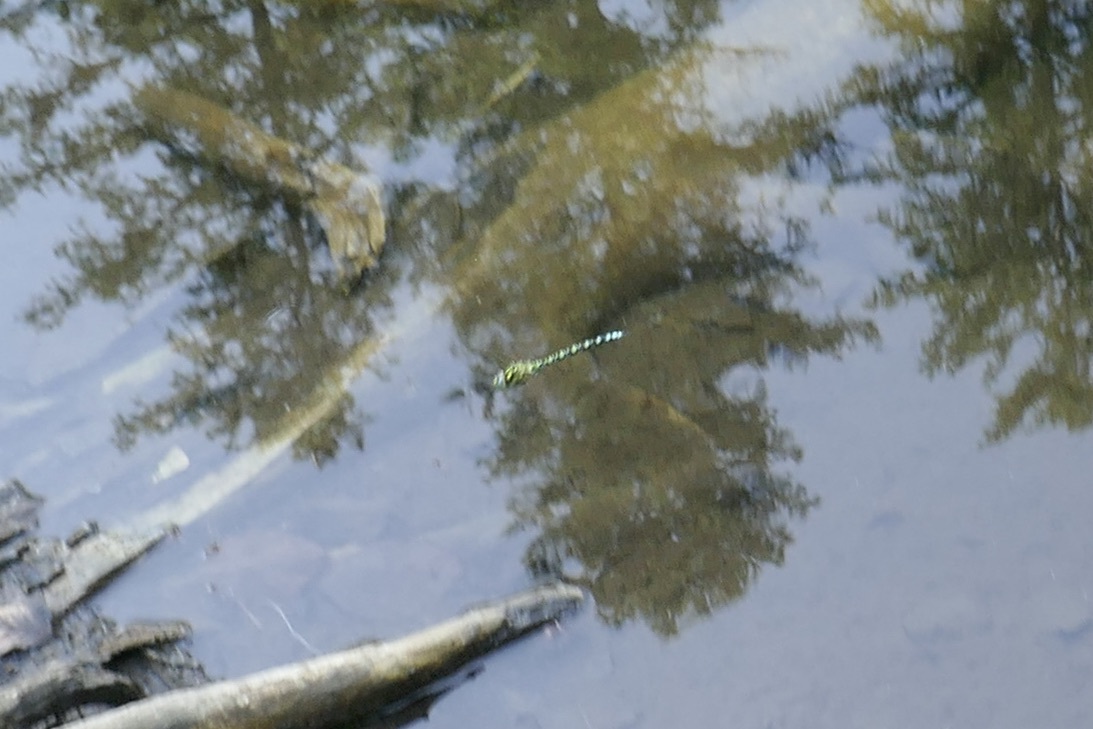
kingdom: Animalia
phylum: Arthropoda
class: Insecta
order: Odonata
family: Aeshnidae
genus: Aeshna
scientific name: Aeshna cyanea
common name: Southern hawker
